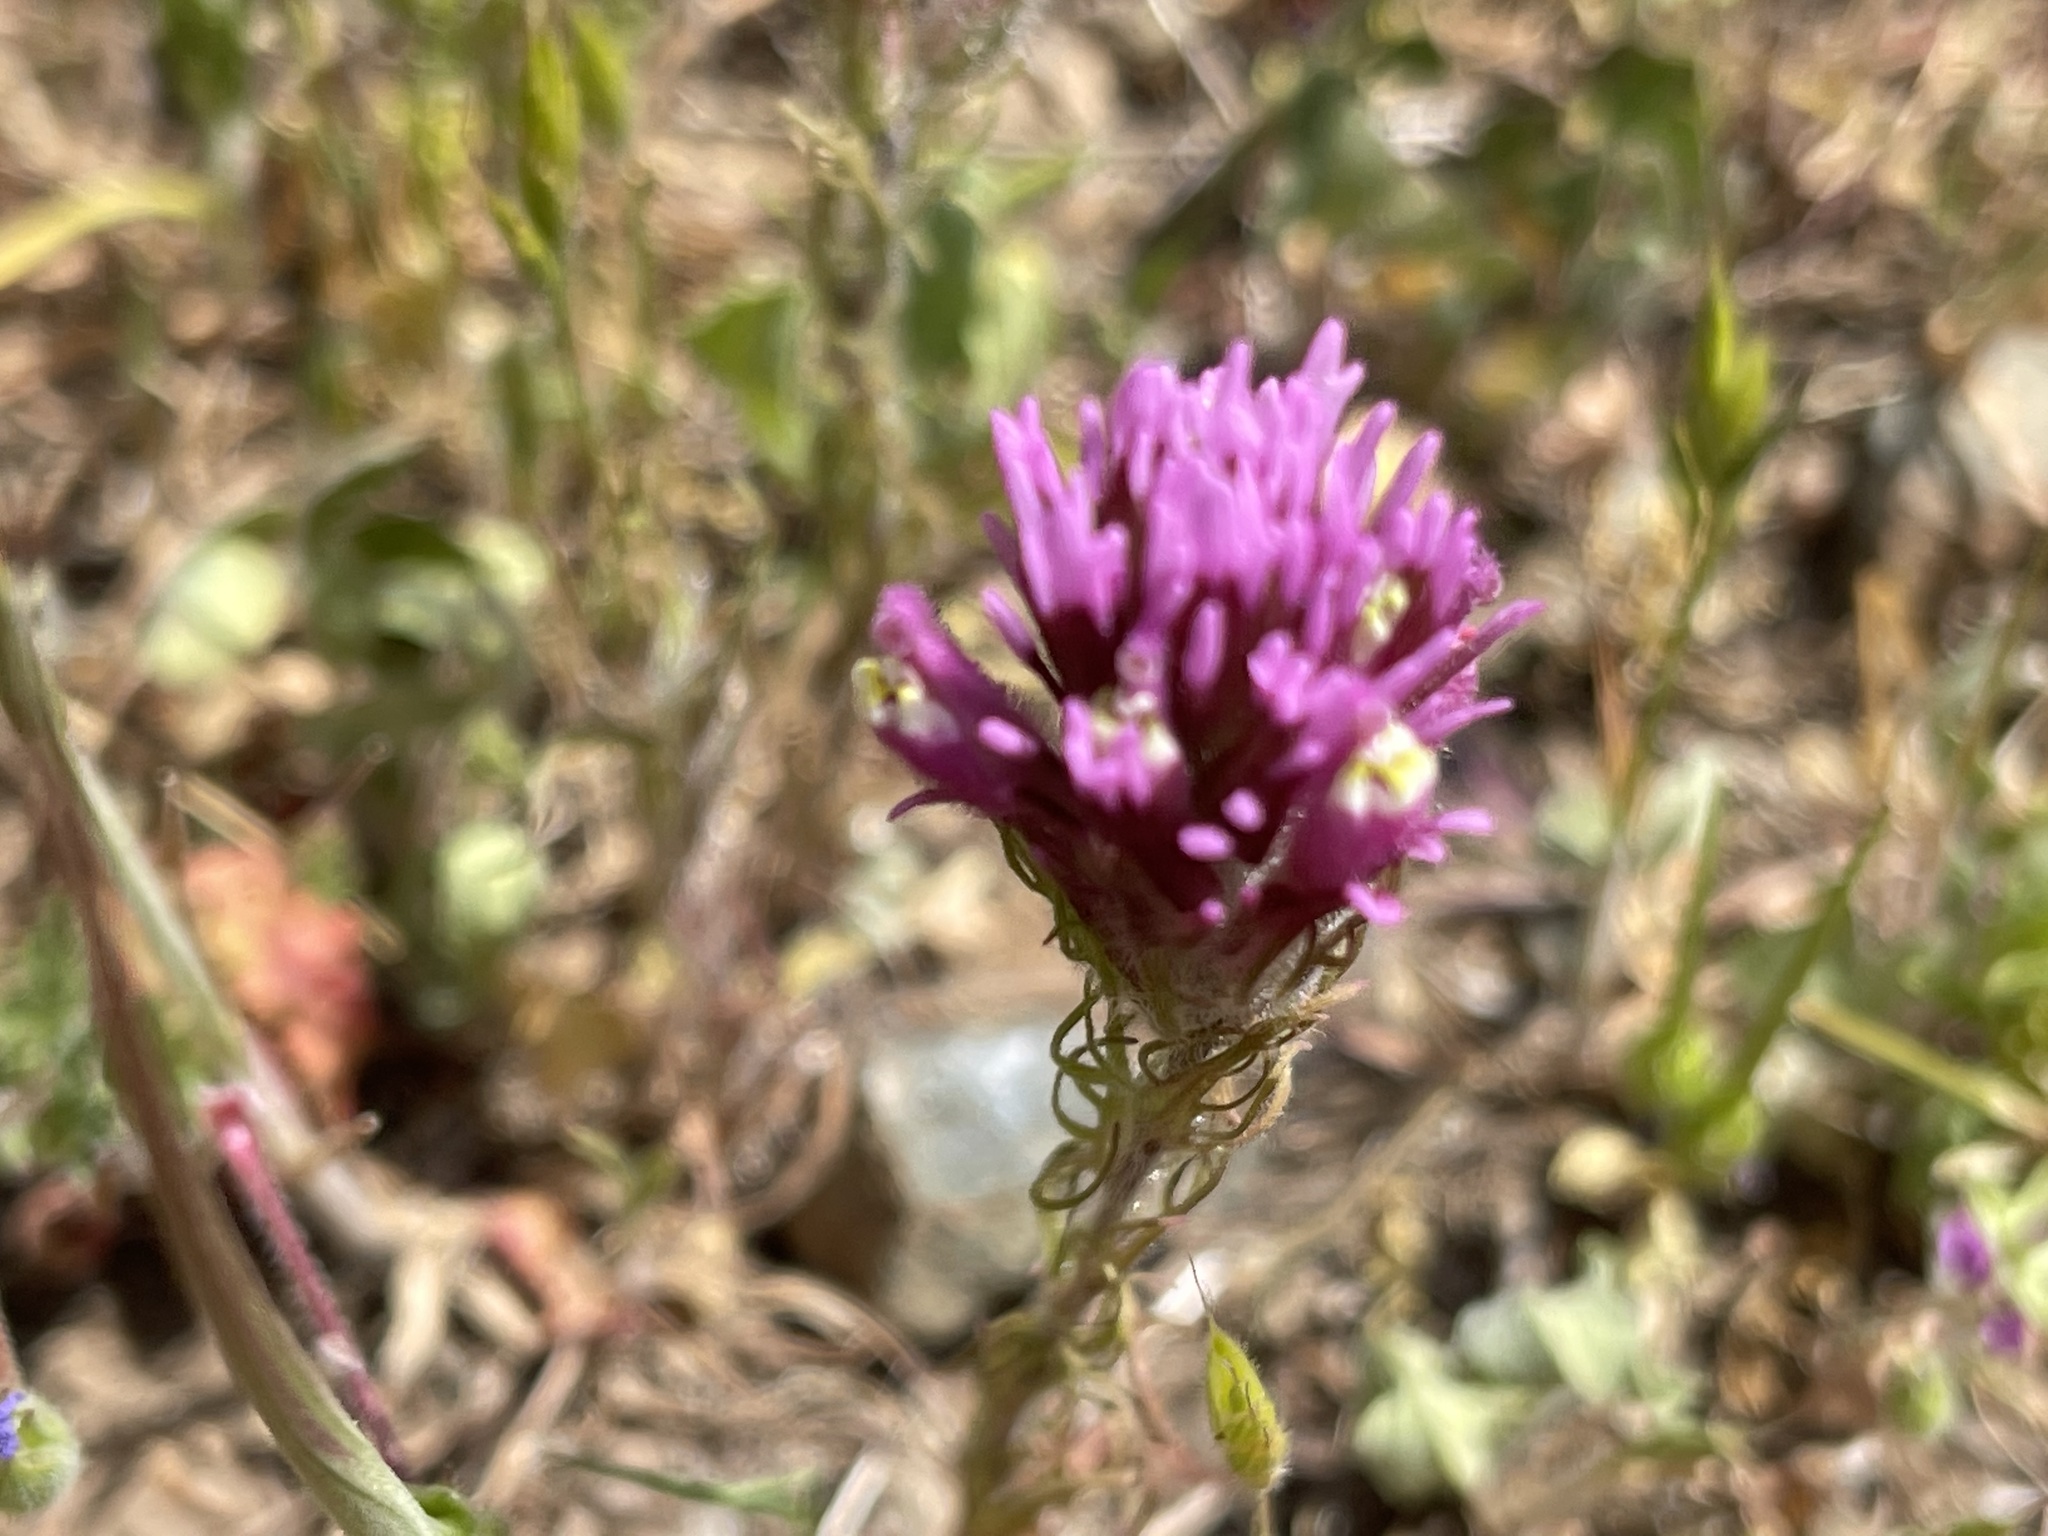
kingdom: Plantae
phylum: Tracheophyta
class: Magnoliopsida
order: Lamiales
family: Orobanchaceae
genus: Castilleja
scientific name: Castilleja exserta
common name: Purple owl-clover
